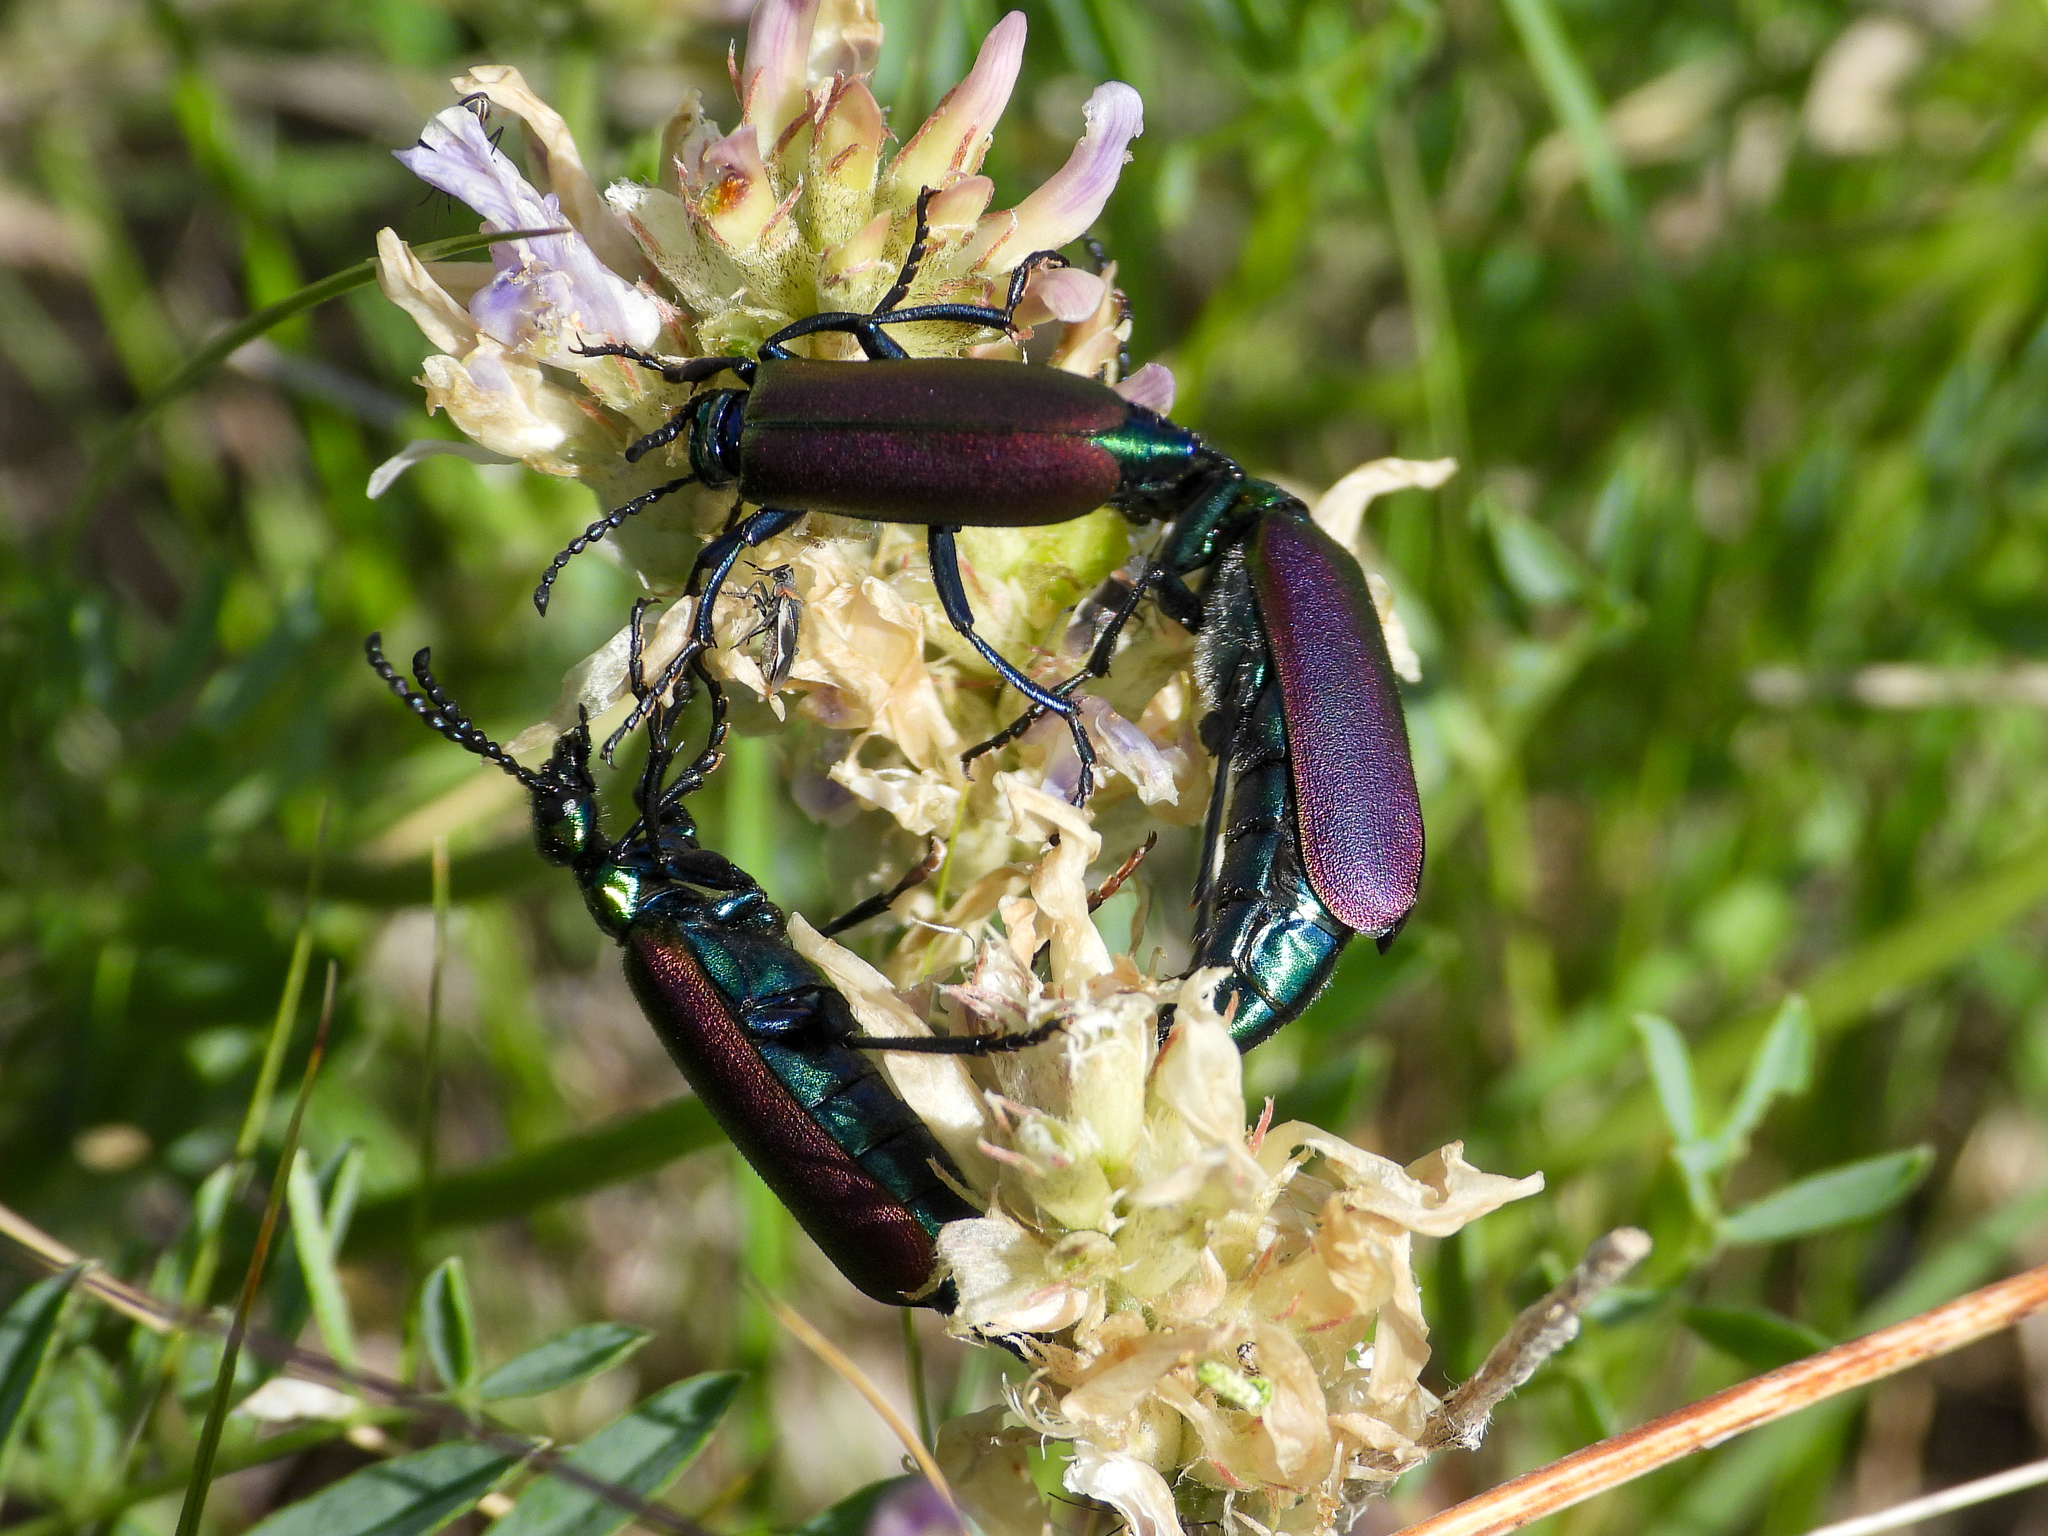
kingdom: Animalia
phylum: Arthropoda
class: Insecta
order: Coleoptera
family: Meloidae
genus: Lytta
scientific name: Lytta nuttallii
